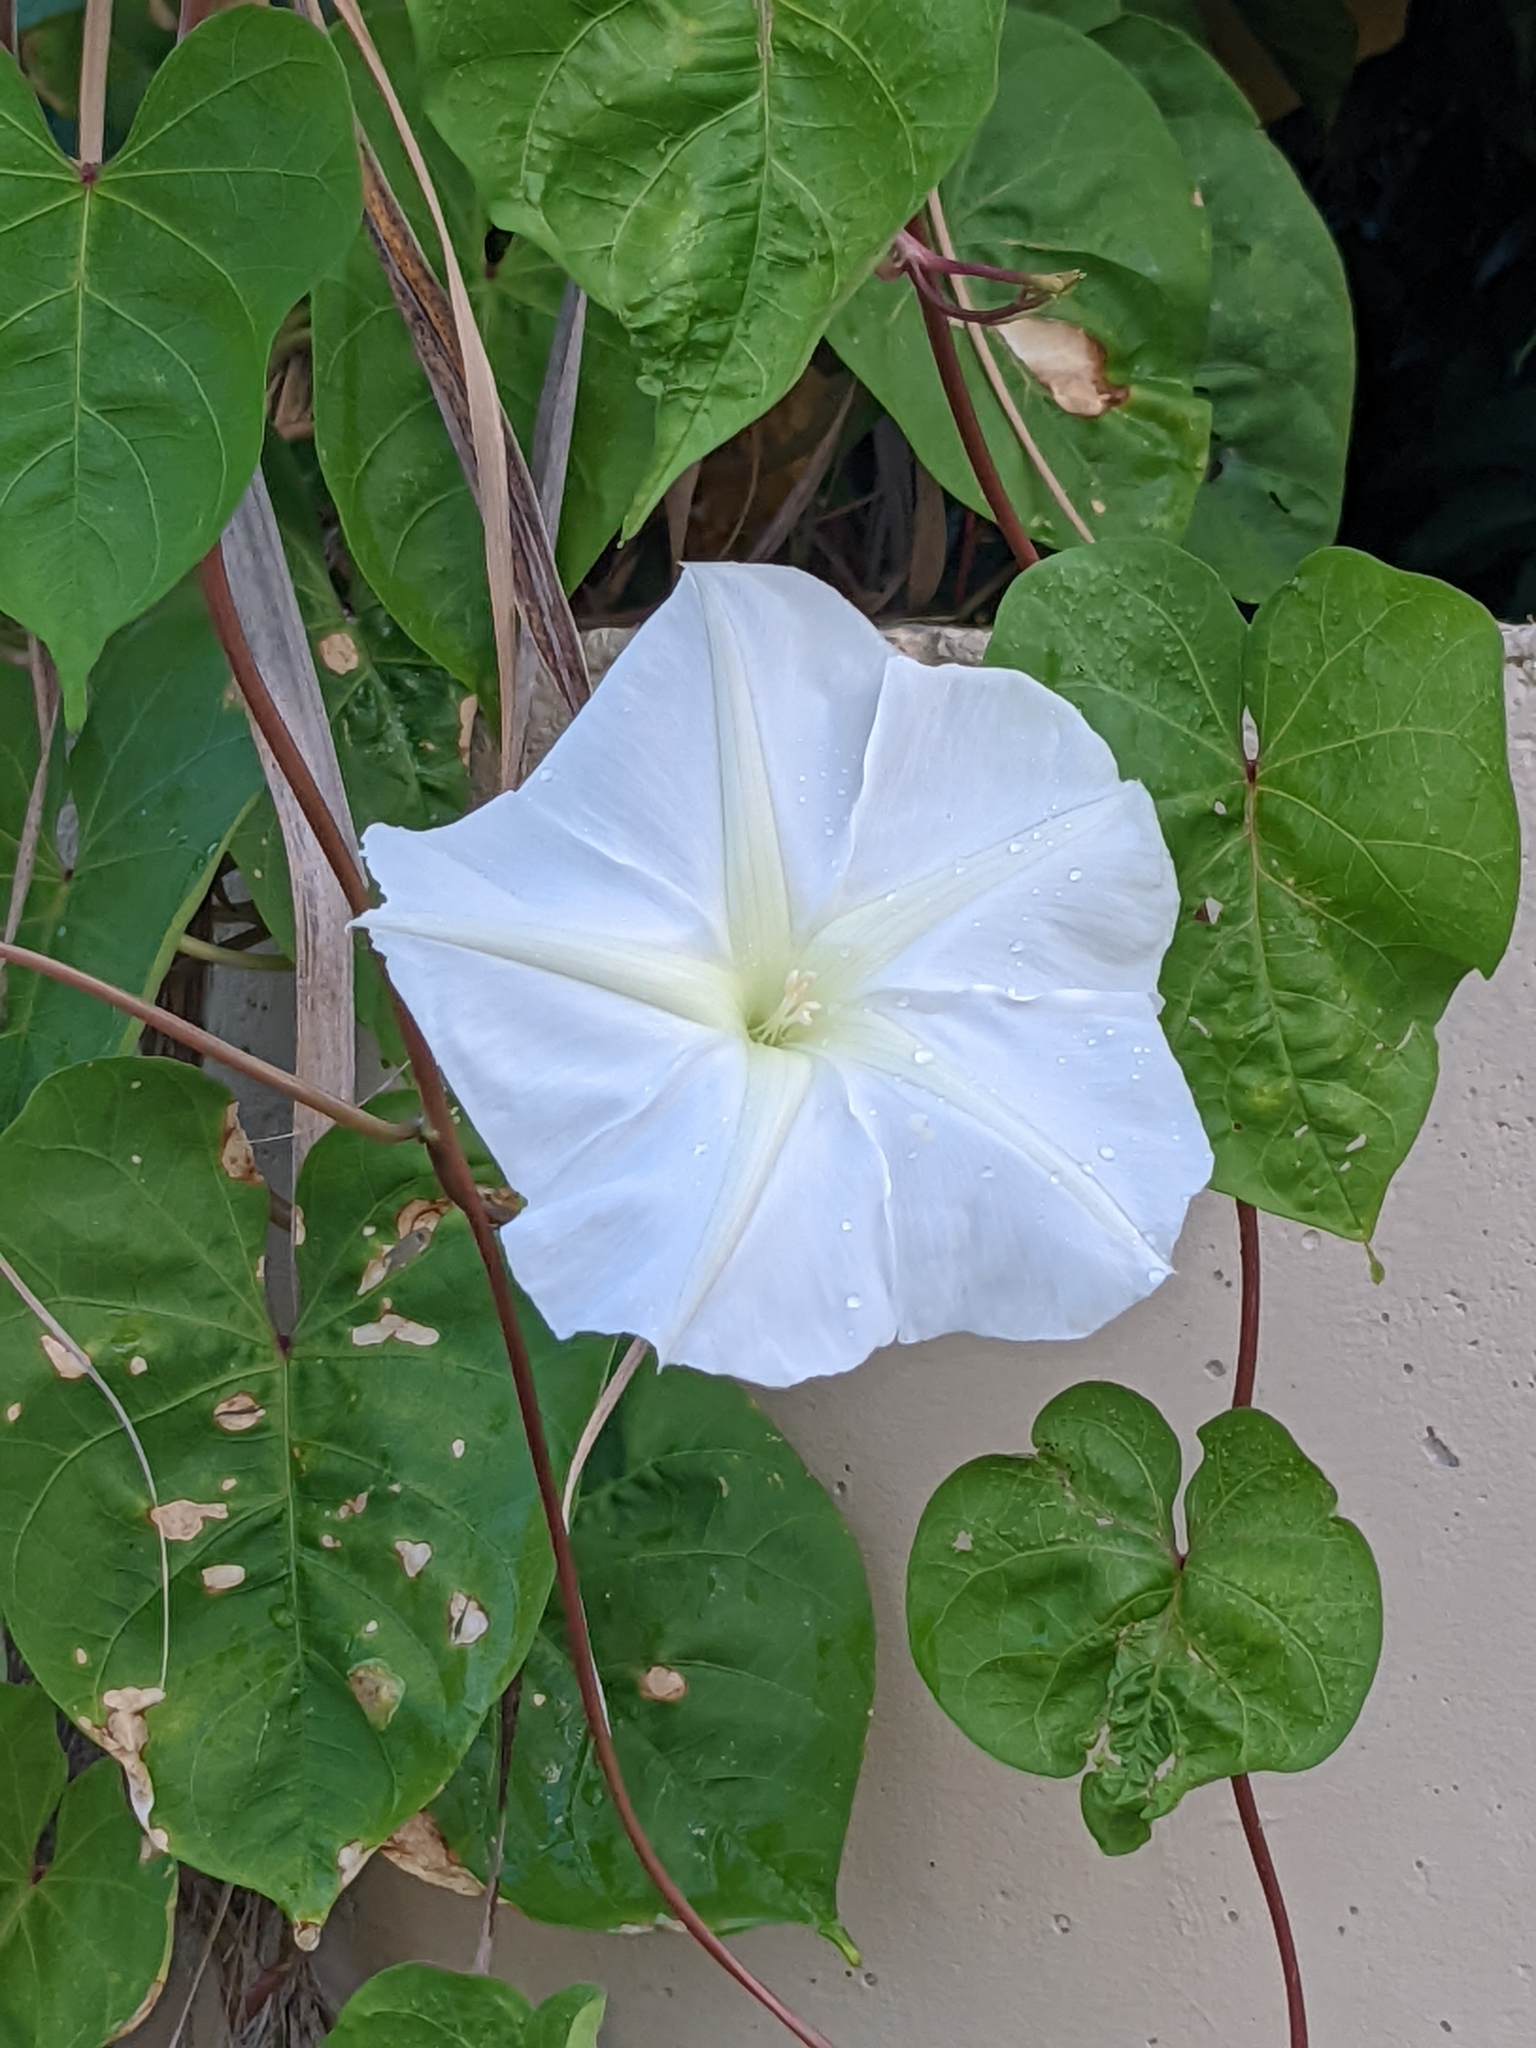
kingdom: Plantae
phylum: Tracheophyta
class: Magnoliopsida
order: Solanales
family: Convolvulaceae
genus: Ipomoea
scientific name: Ipomoea alba
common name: Moonflower
